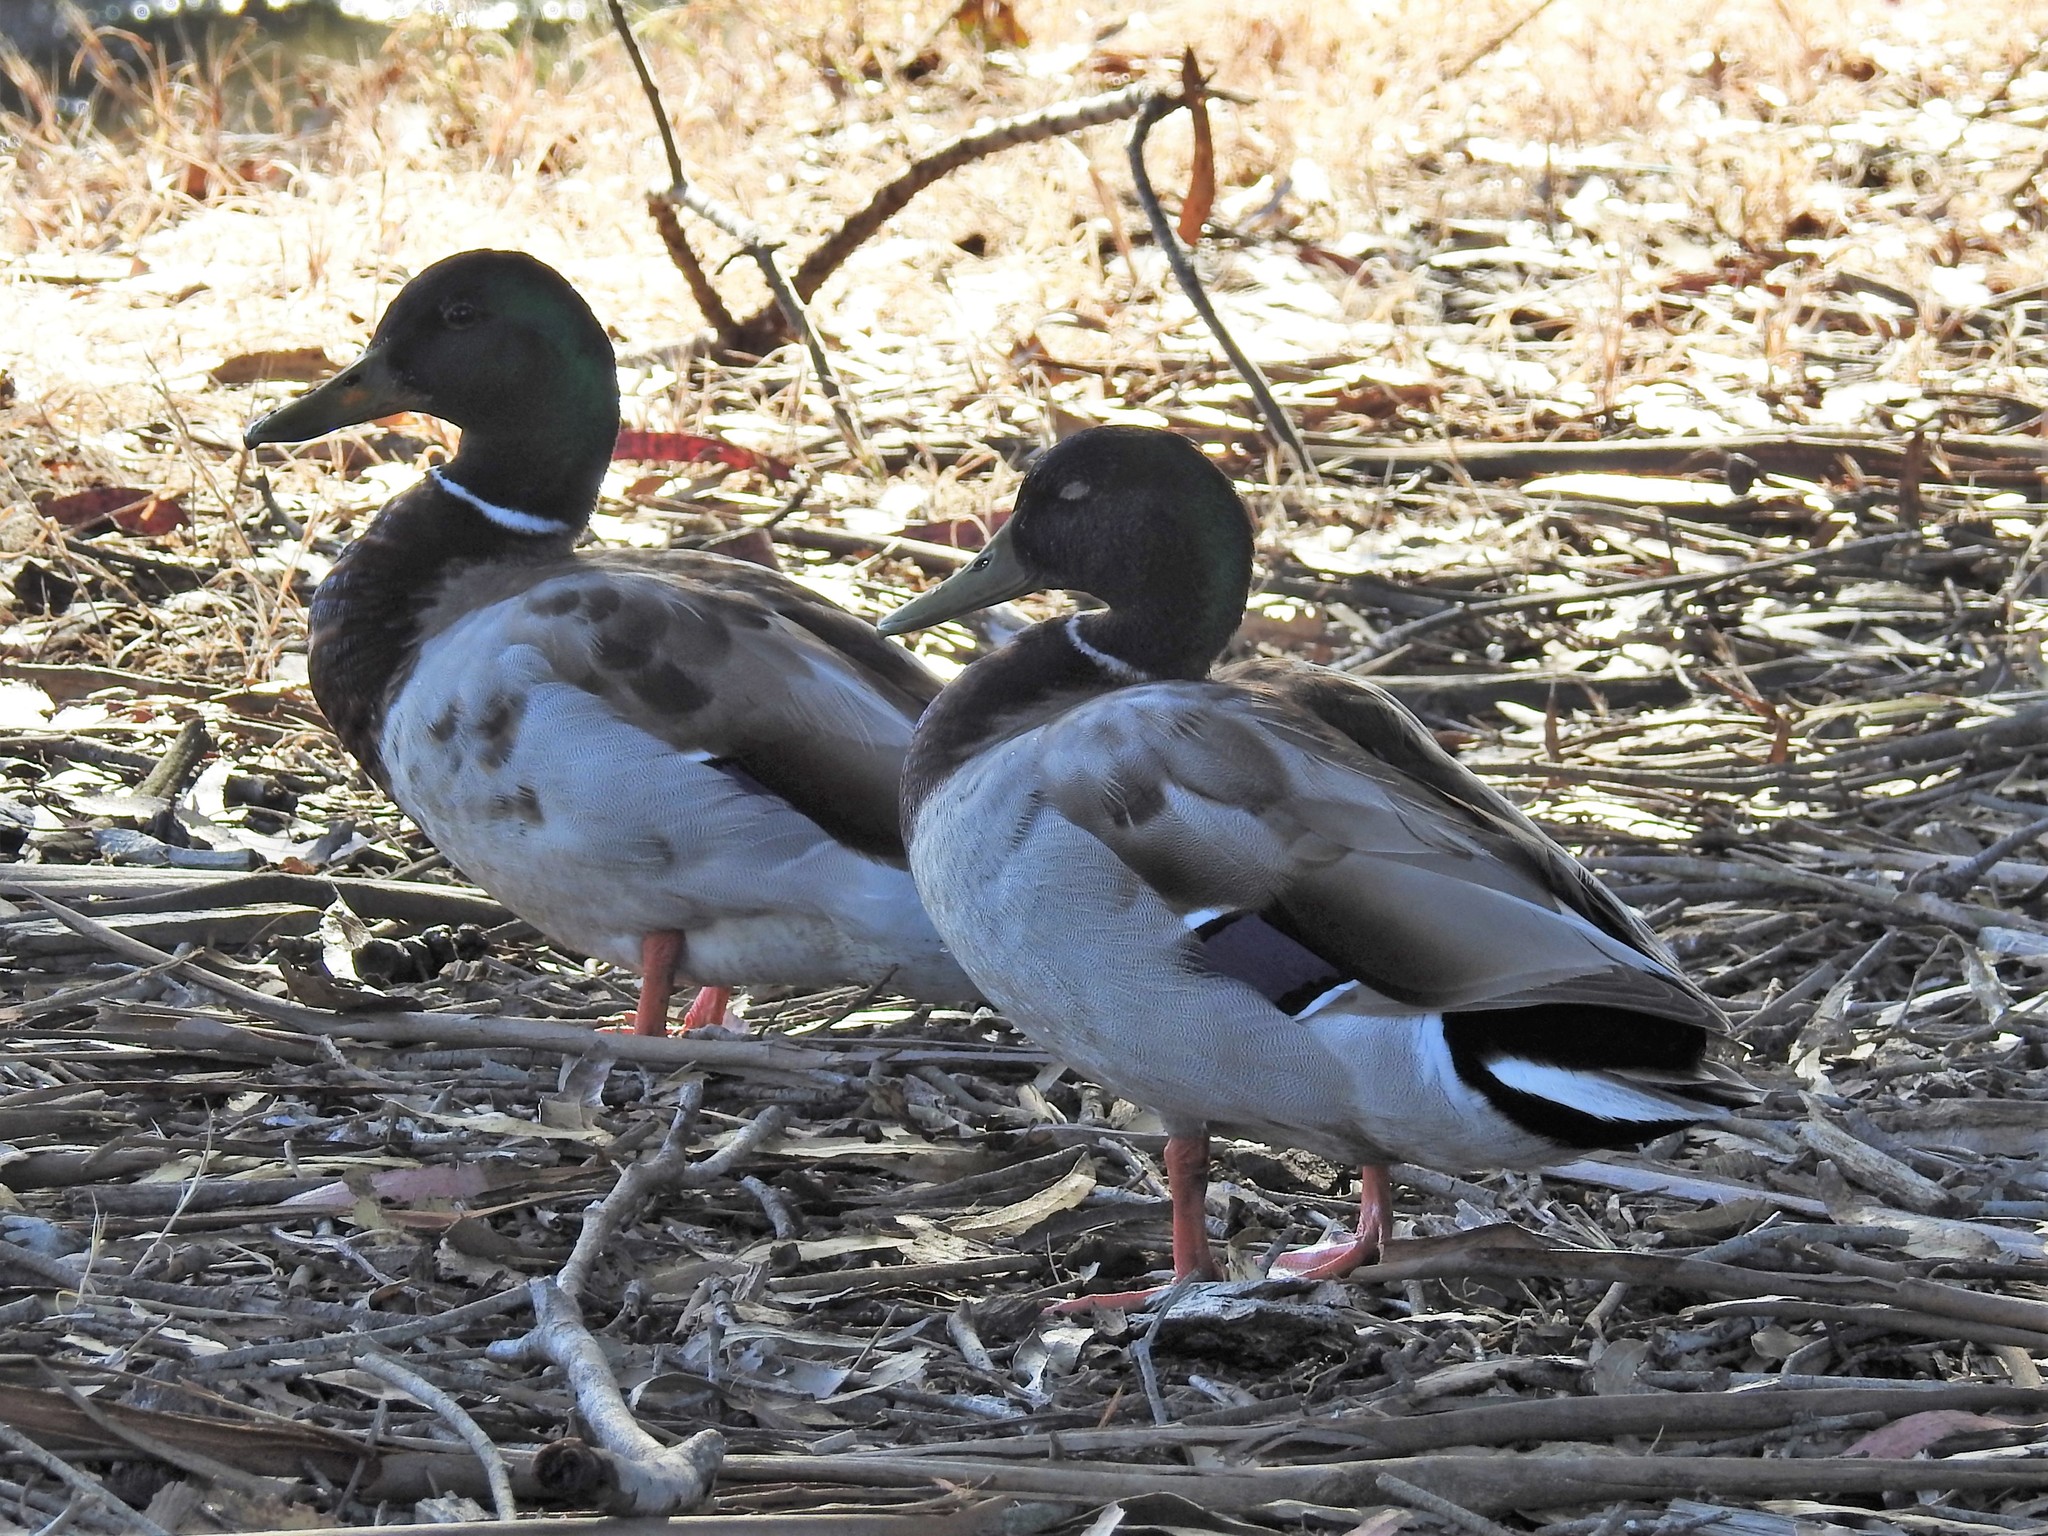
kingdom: Animalia
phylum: Chordata
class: Aves
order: Anseriformes
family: Anatidae
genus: Anas
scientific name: Anas platyrhynchos
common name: Mallard
